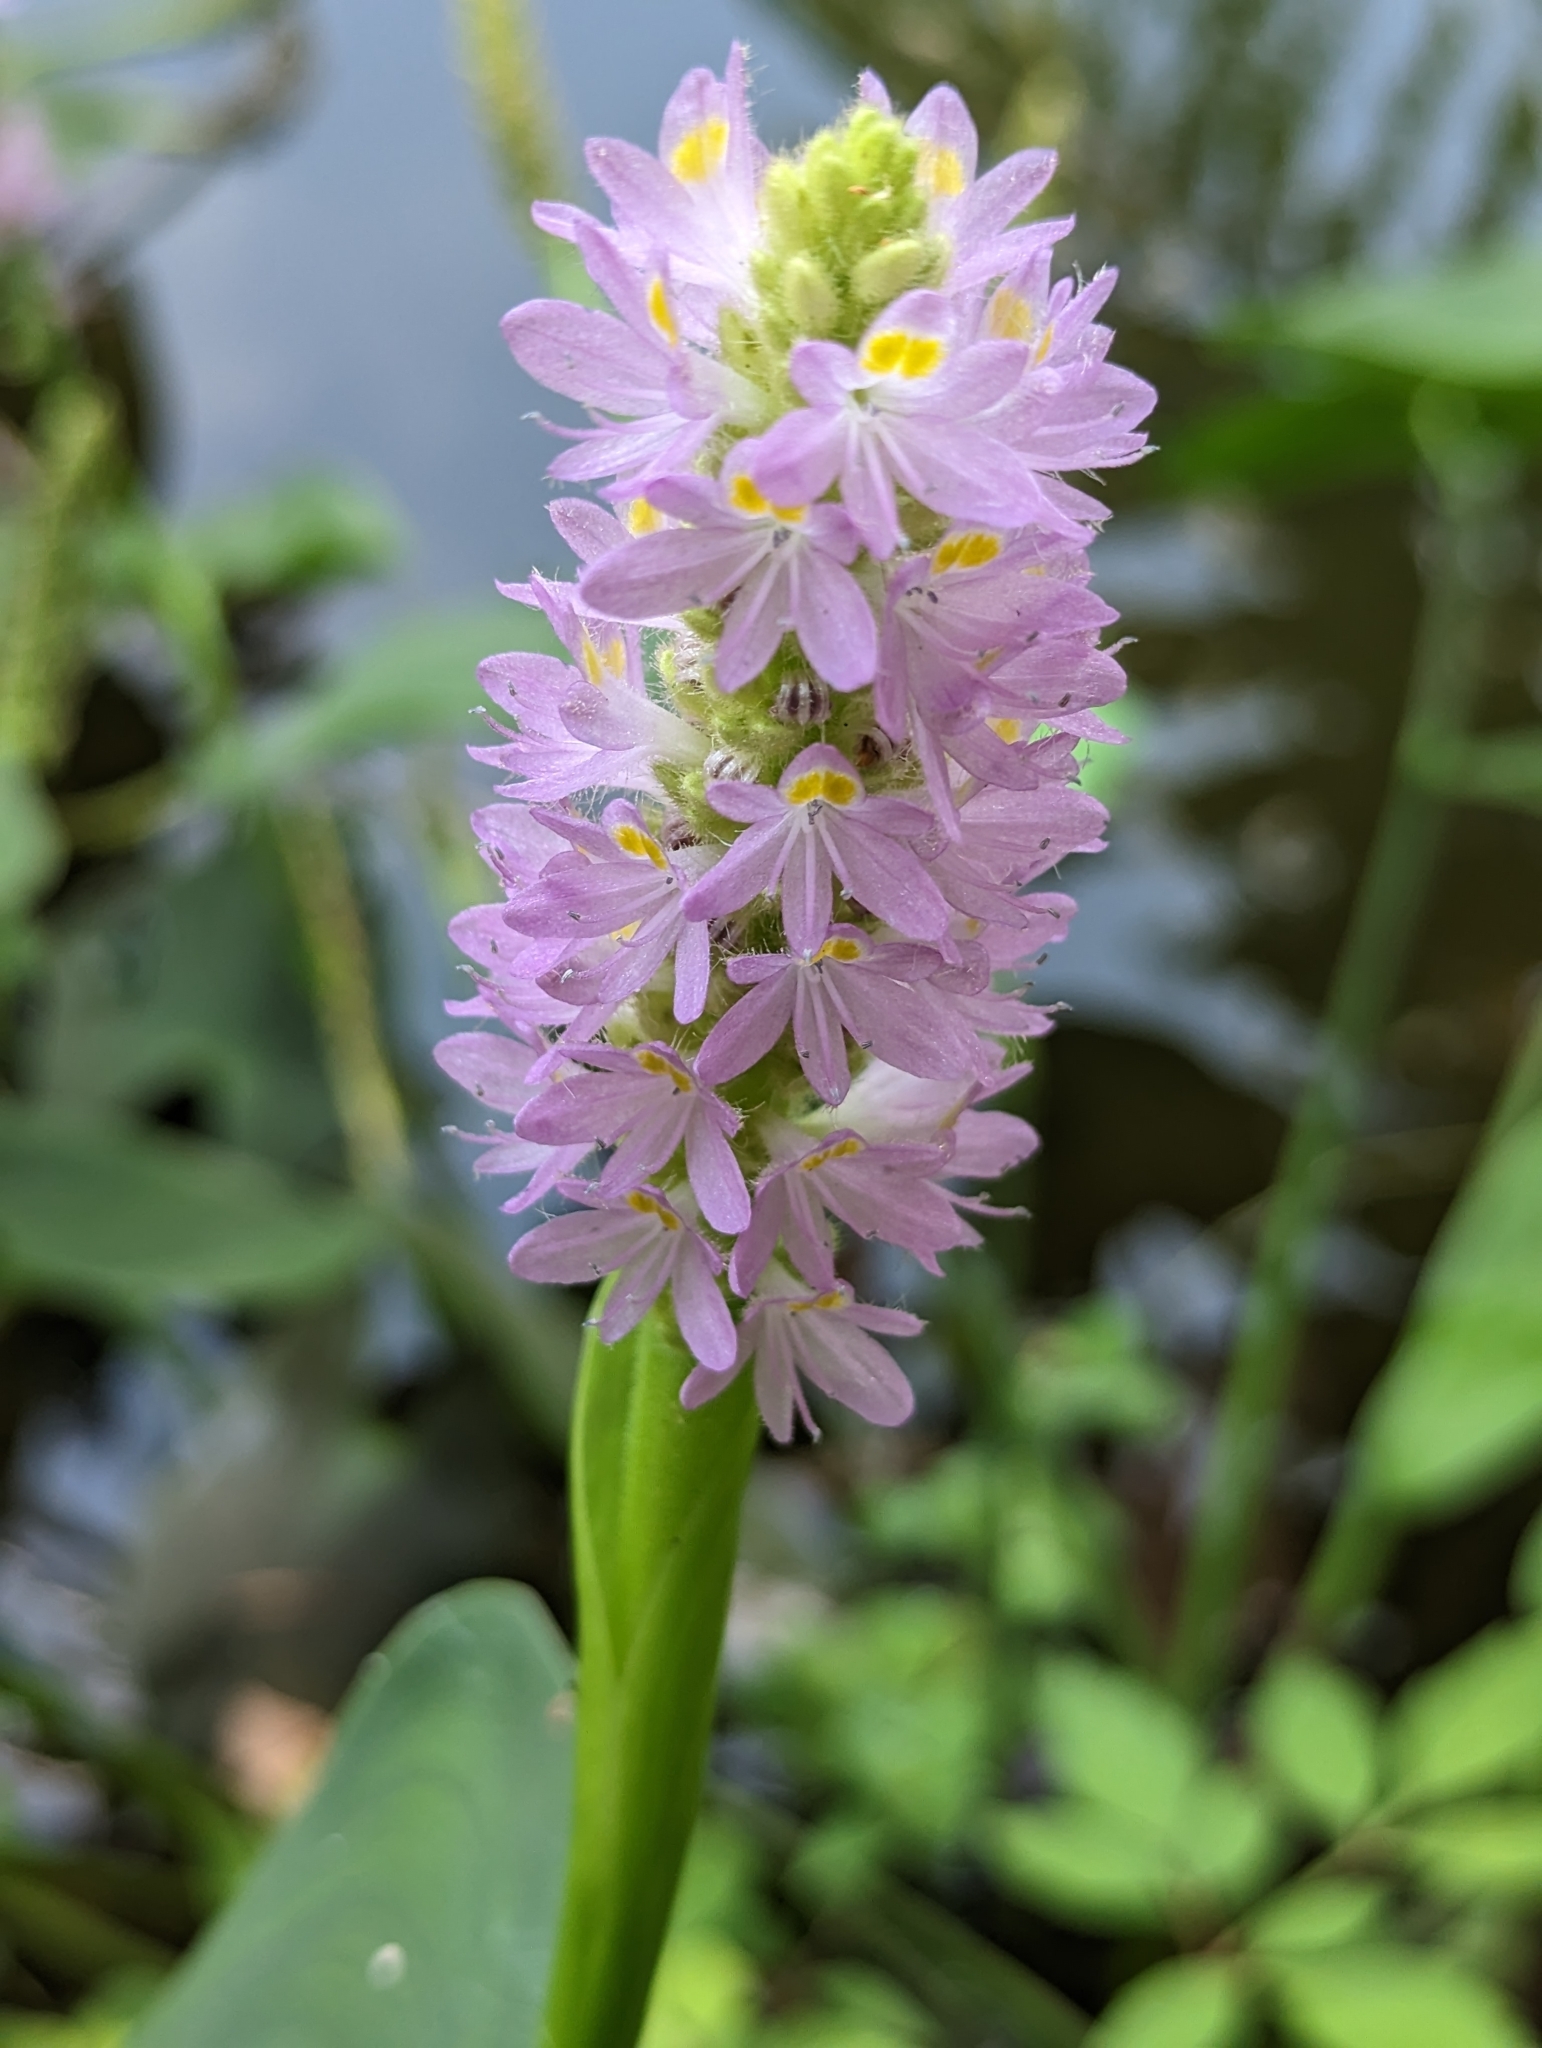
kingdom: Plantae
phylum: Tracheophyta
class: Liliopsida
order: Commelinales
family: Pontederiaceae
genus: Pontederia
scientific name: Pontederia sagittata
